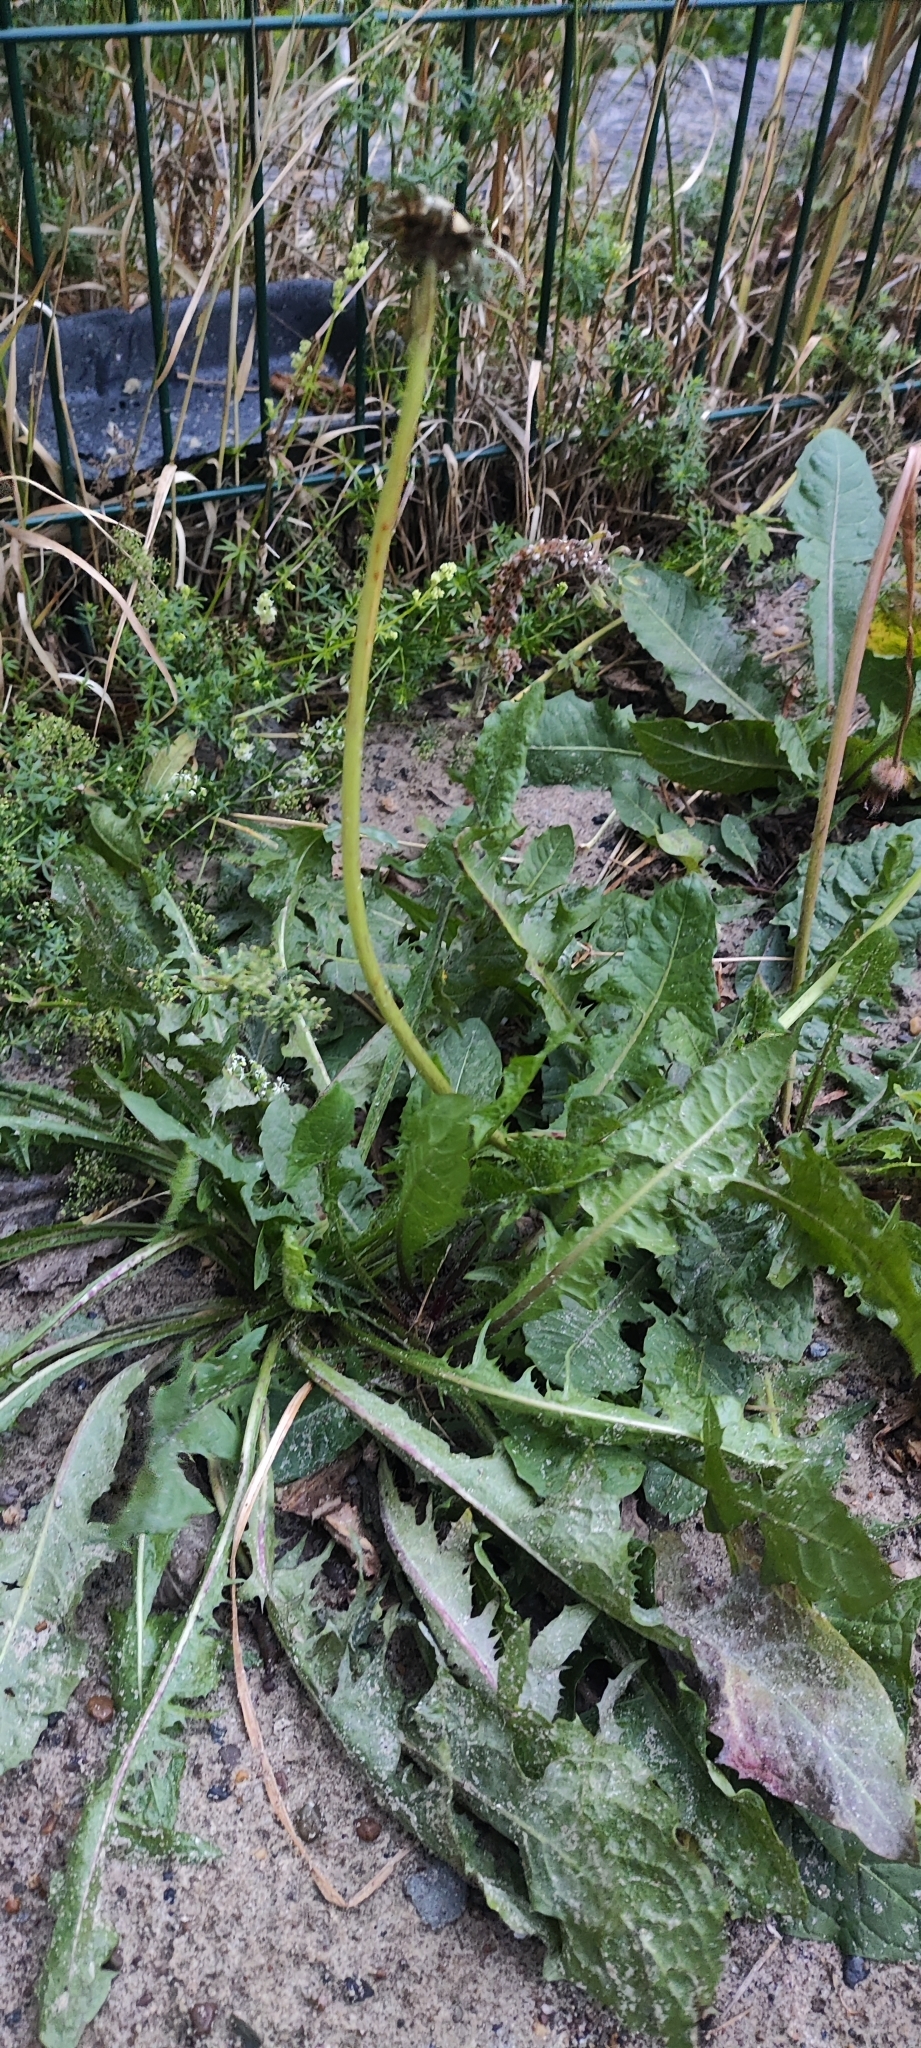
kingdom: Plantae
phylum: Tracheophyta
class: Magnoliopsida
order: Asterales
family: Asteraceae
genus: Taraxacum
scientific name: Taraxacum officinale
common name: Common dandelion
